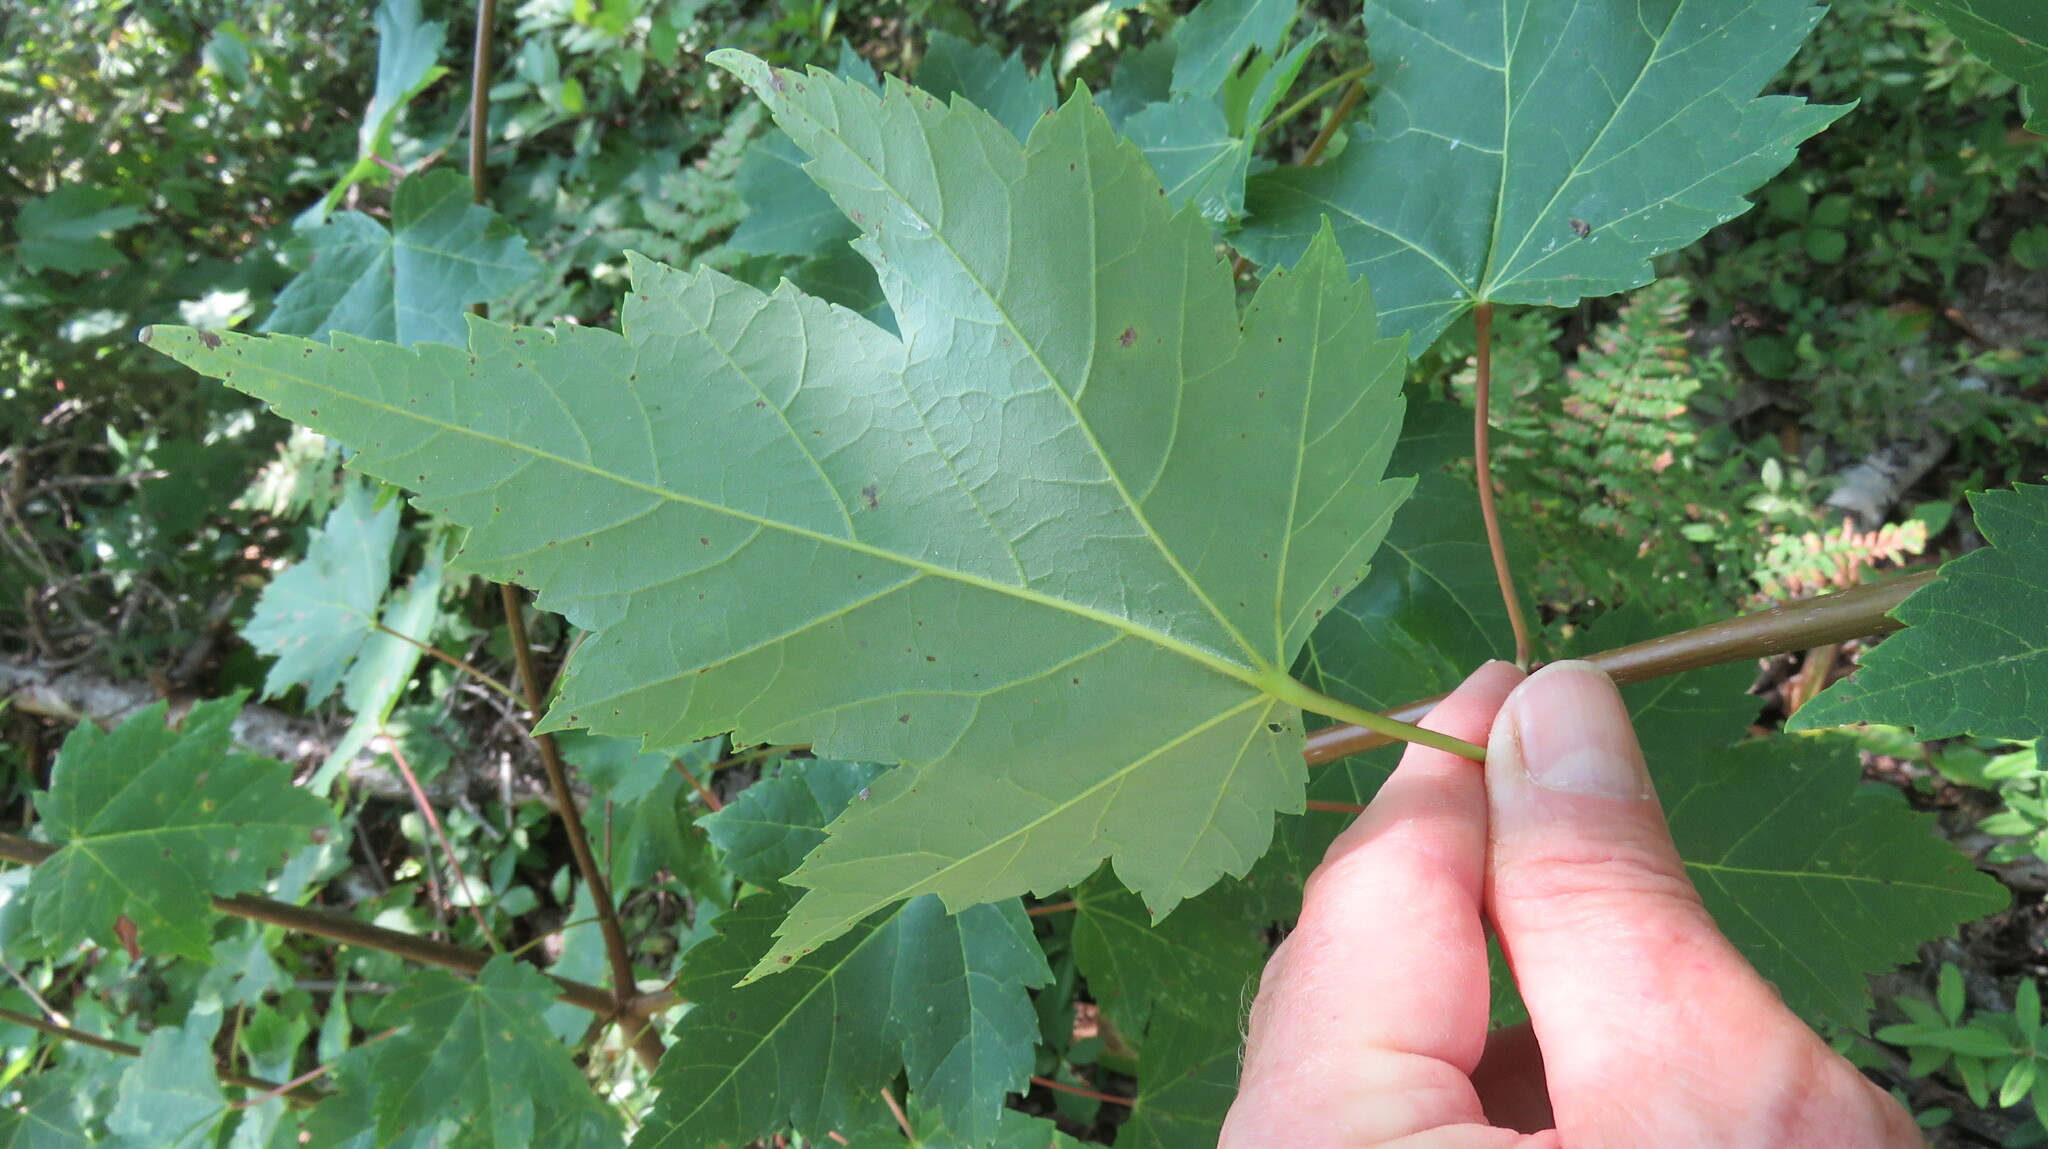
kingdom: Plantae
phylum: Tracheophyta
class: Magnoliopsida
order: Sapindales
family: Sapindaceae
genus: Acer
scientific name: Acer rubrum
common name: Red maple
